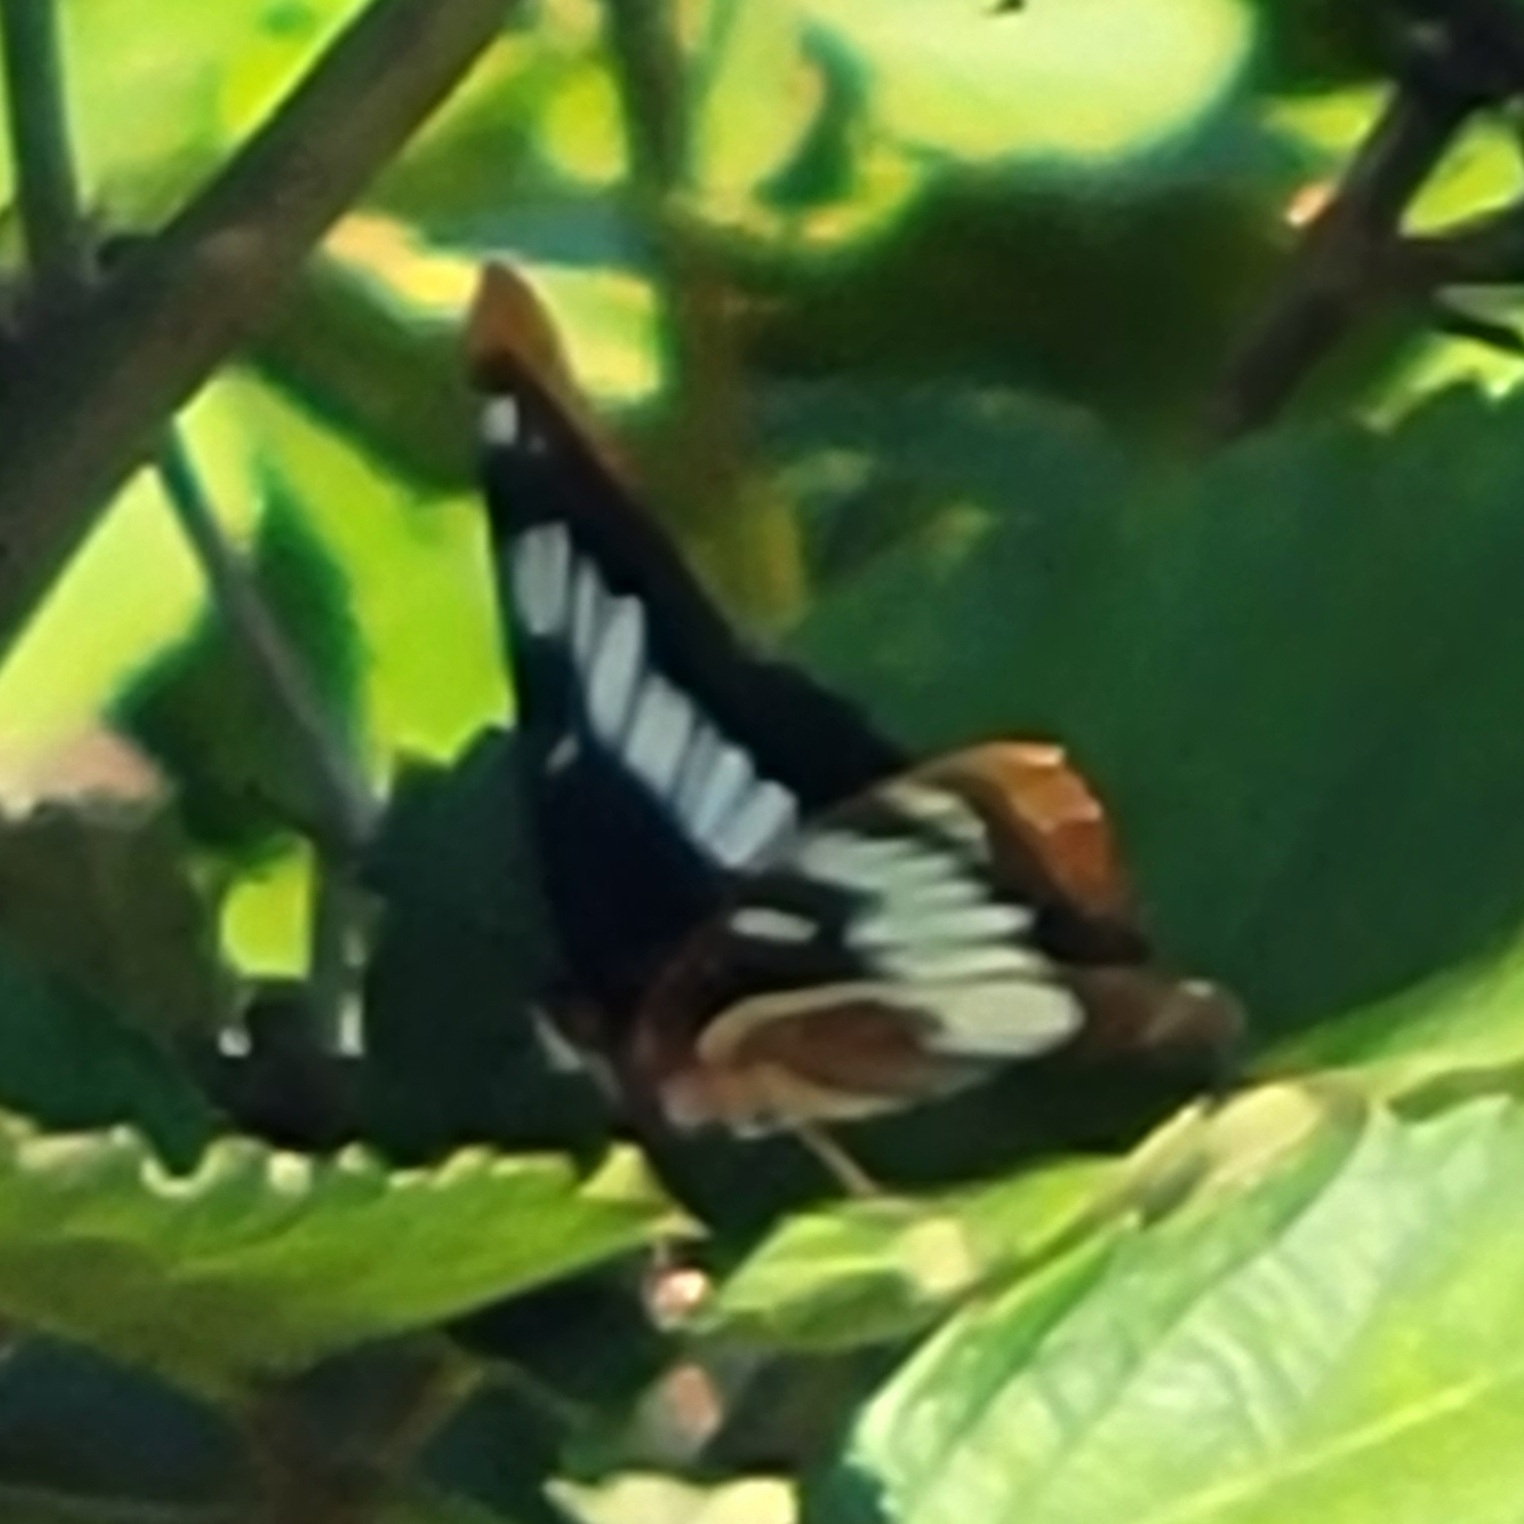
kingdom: Animalia
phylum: Arthropoda
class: Insecta
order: Lepidoptera
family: Nymphalidae
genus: Limenitis
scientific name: Limenitis lorquini
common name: Lorquin's admiral
